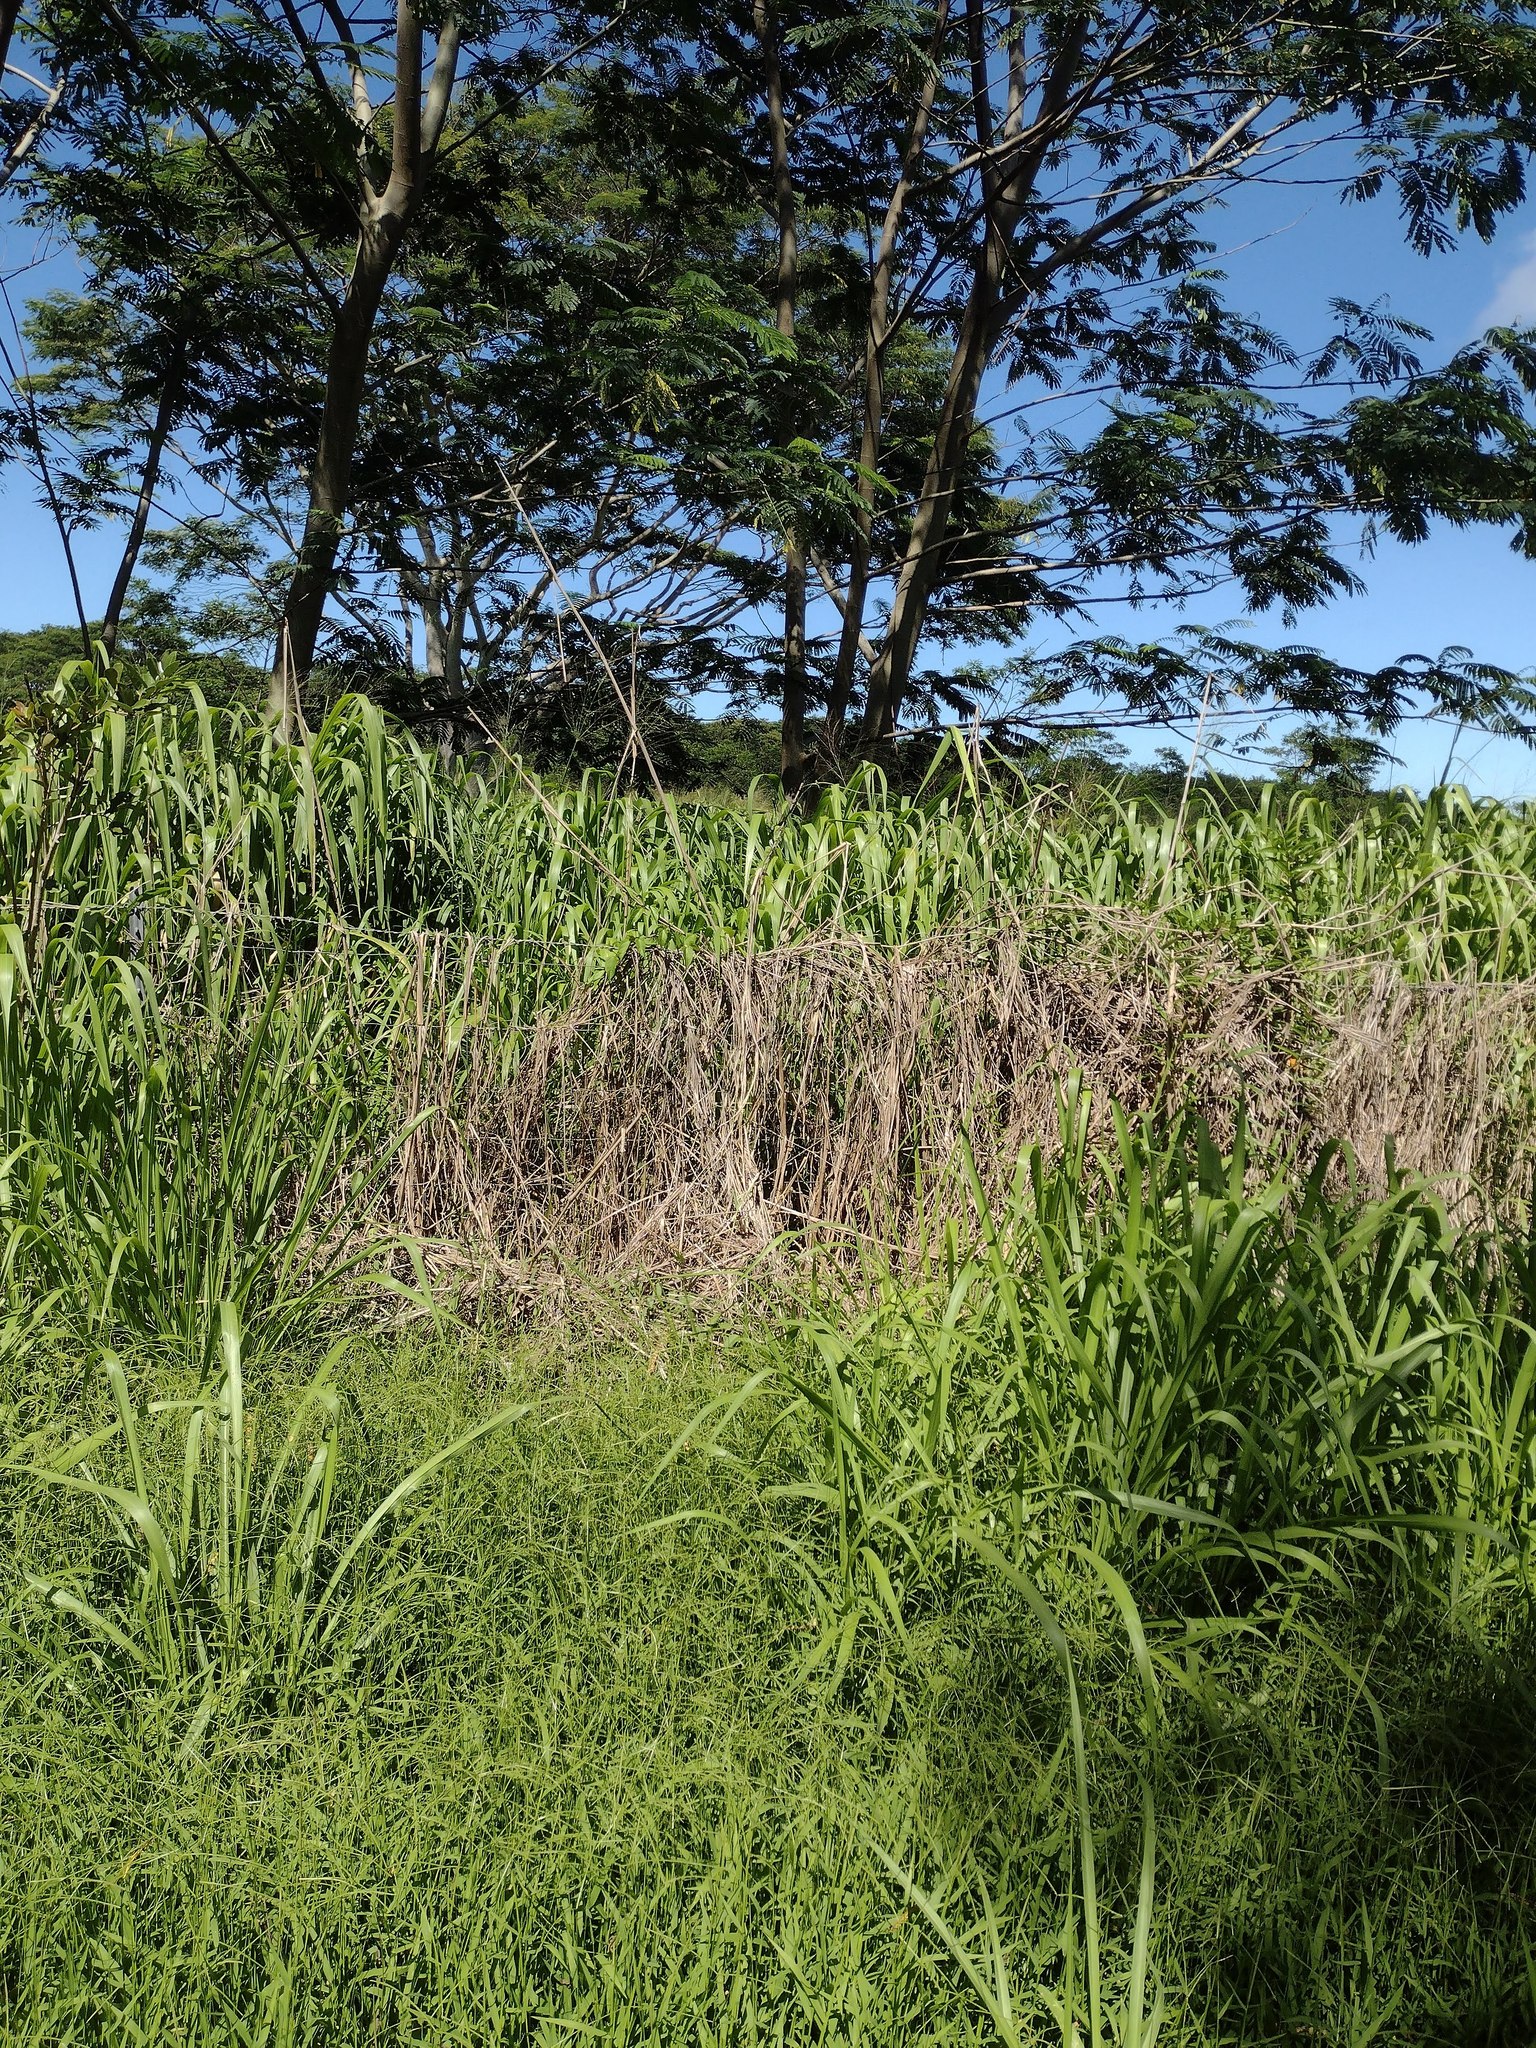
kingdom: Plantae
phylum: Tracheophyta
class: Liliopsida
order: Poales
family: Poaceae
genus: Megathyrsus
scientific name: Megathyrsus maximus
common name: Guineagrass
